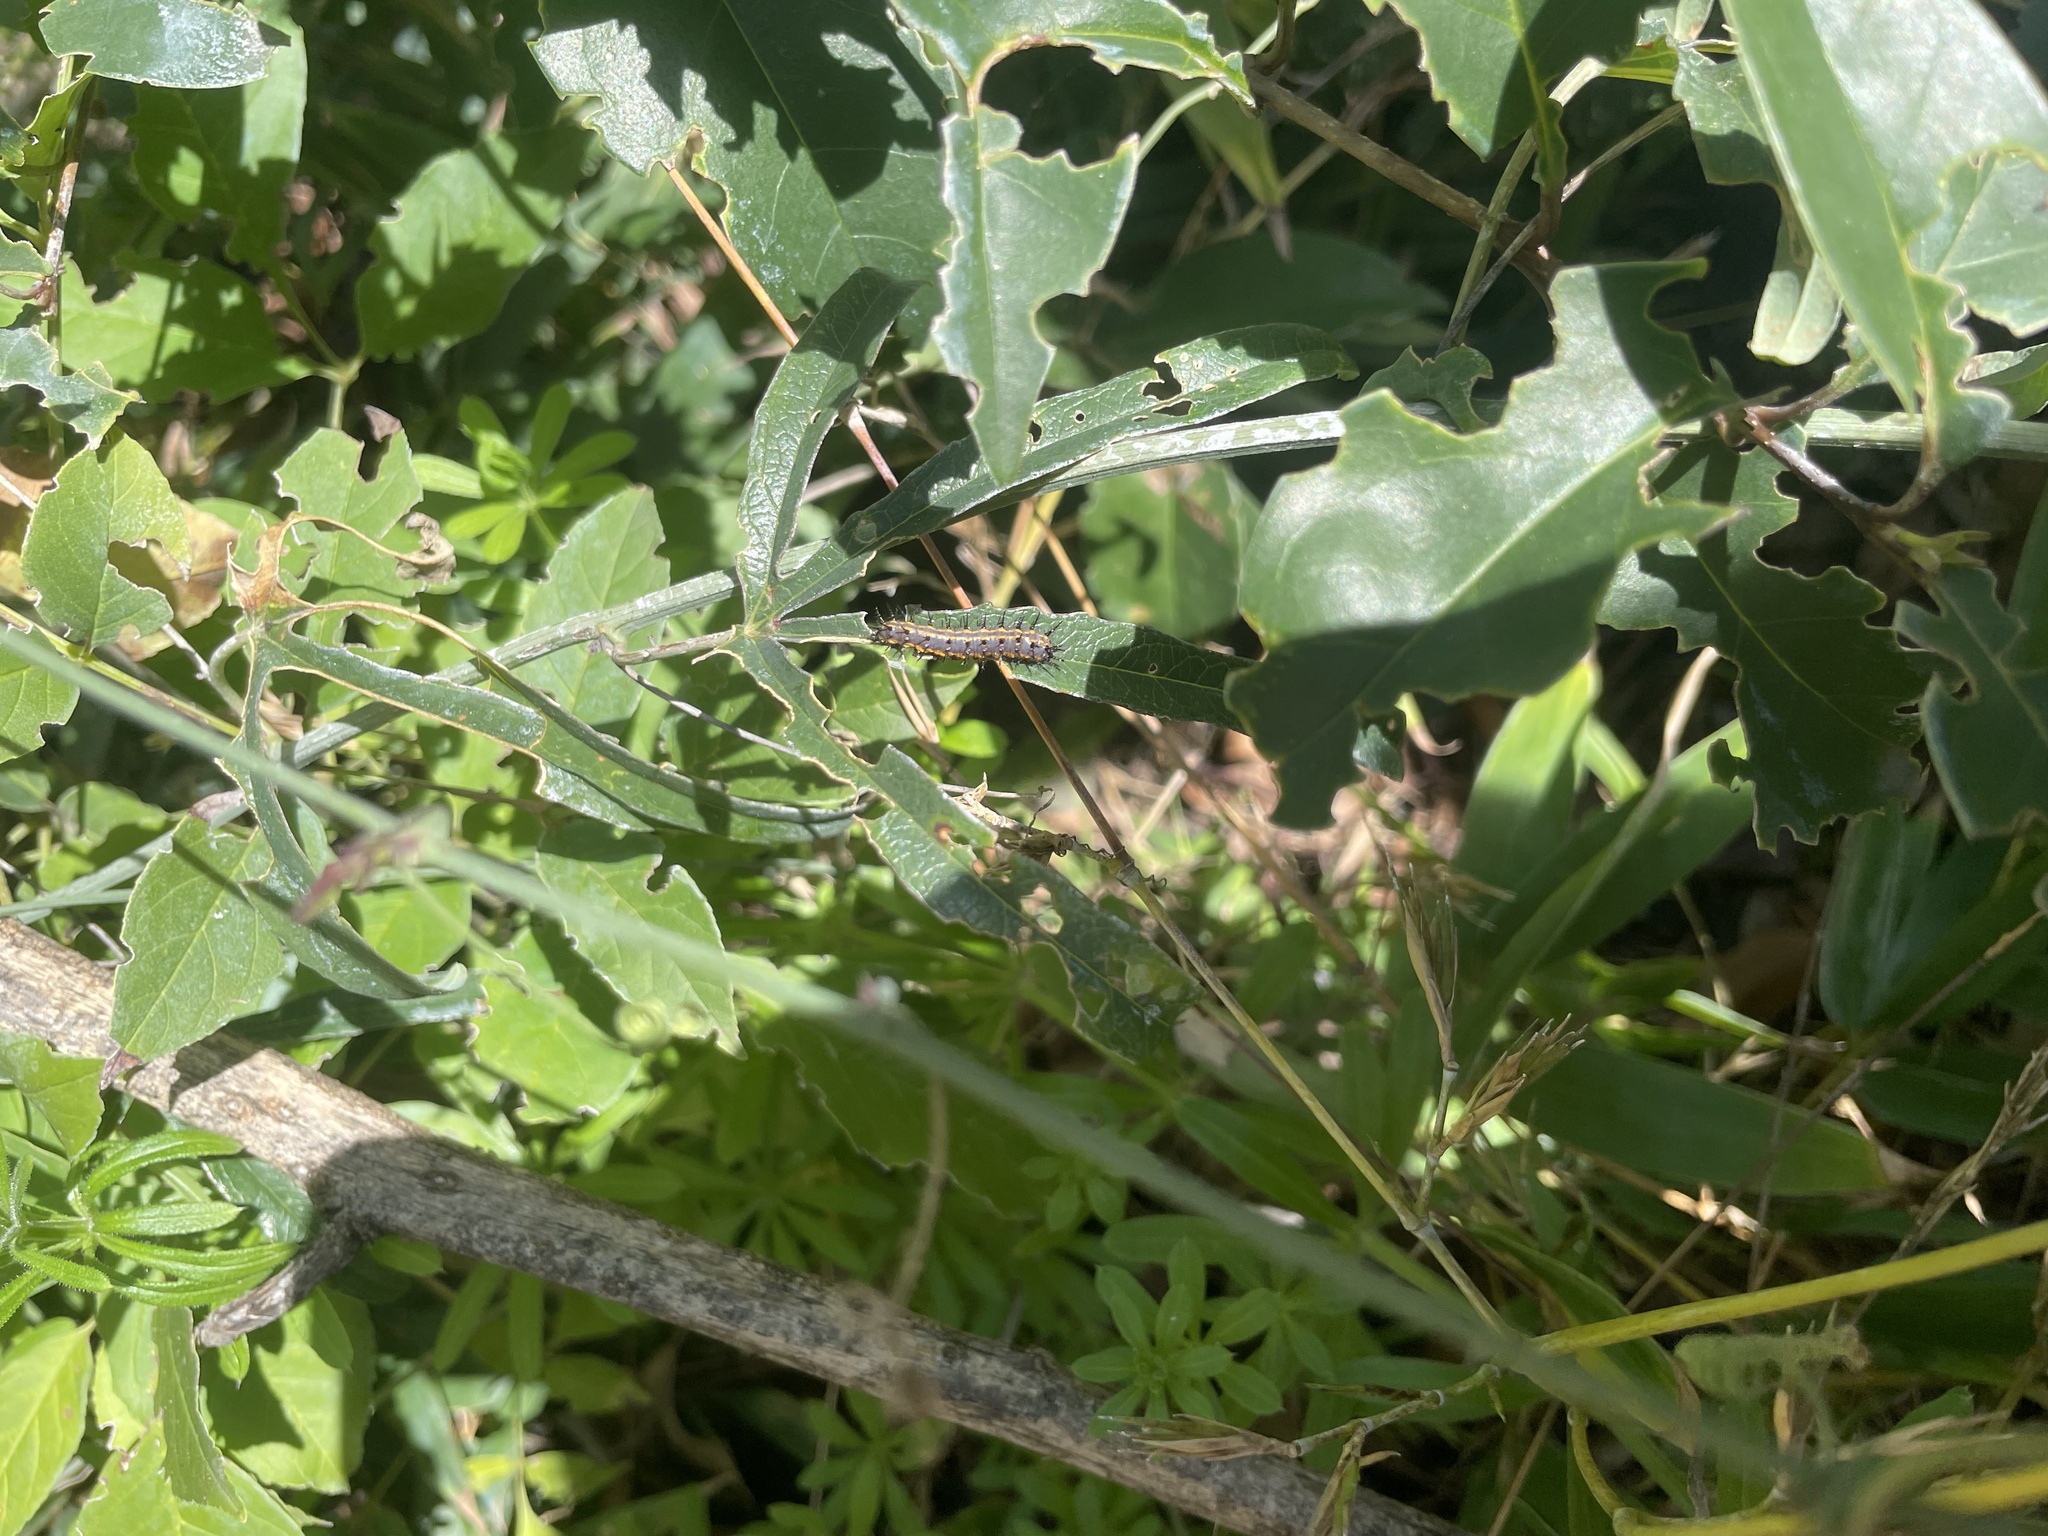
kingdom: Animalia
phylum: Arthropoda
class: Insecta
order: Lepidoptera
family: Nymphalidae
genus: Dione
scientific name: Dione vanillae
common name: Gulf fritillary
